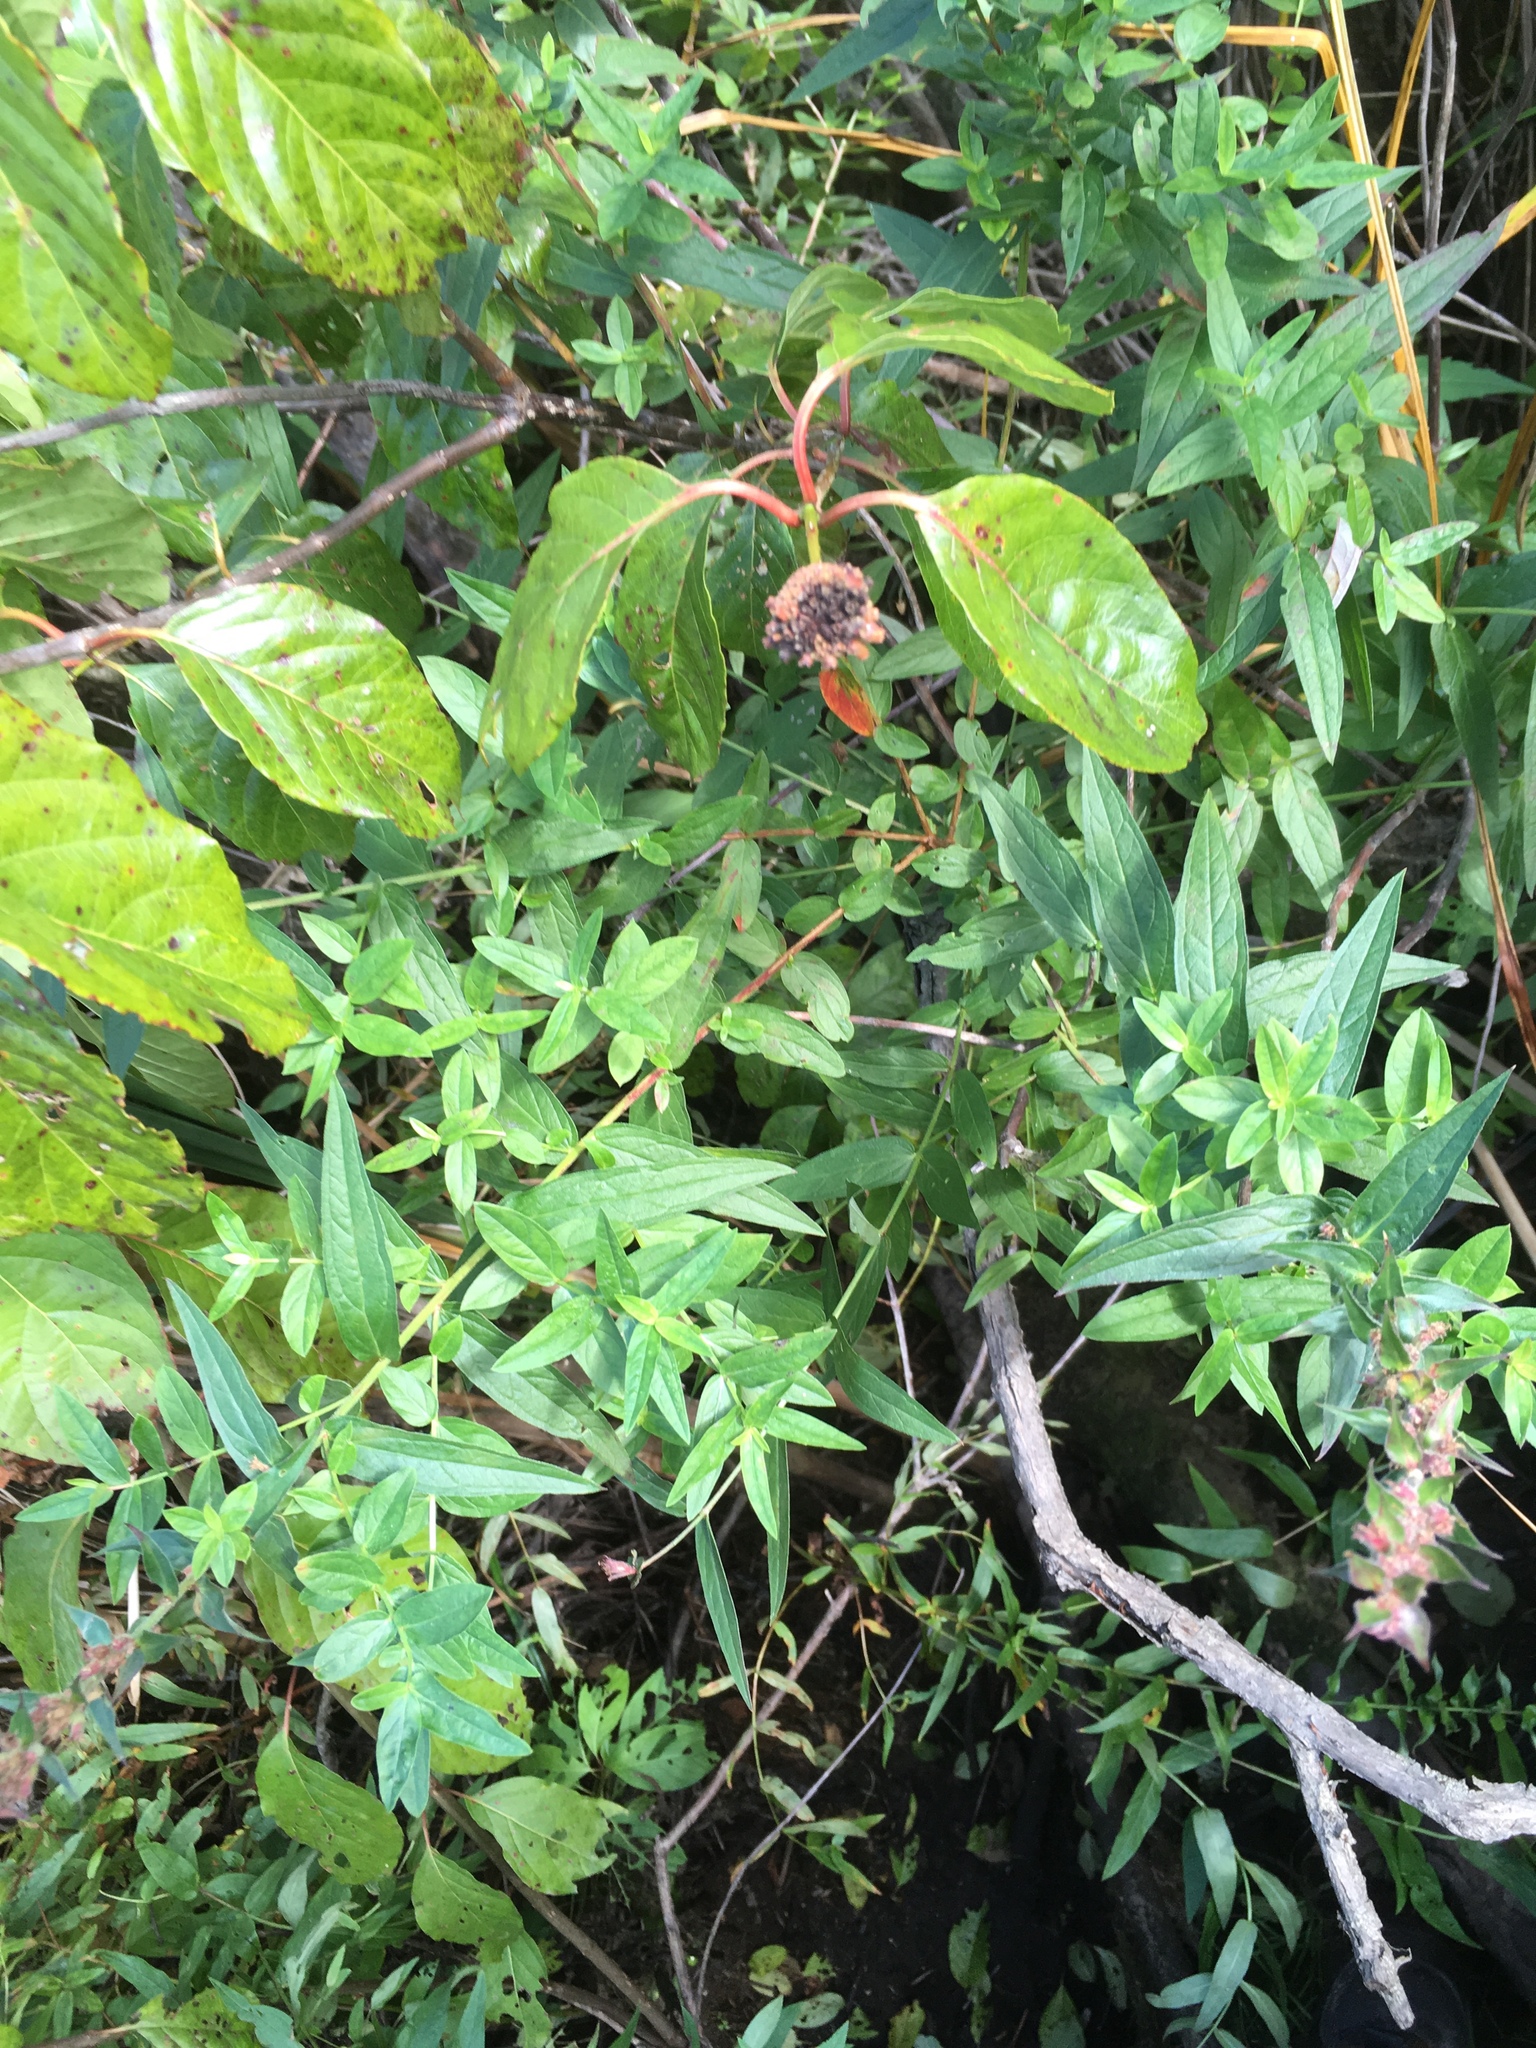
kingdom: Plantae
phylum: Tracheophyta
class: Magnoliopsida
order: Myrtales
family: Lythraceae
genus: Lythrum
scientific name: Lythrum salicaria
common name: Purple loosestrife
